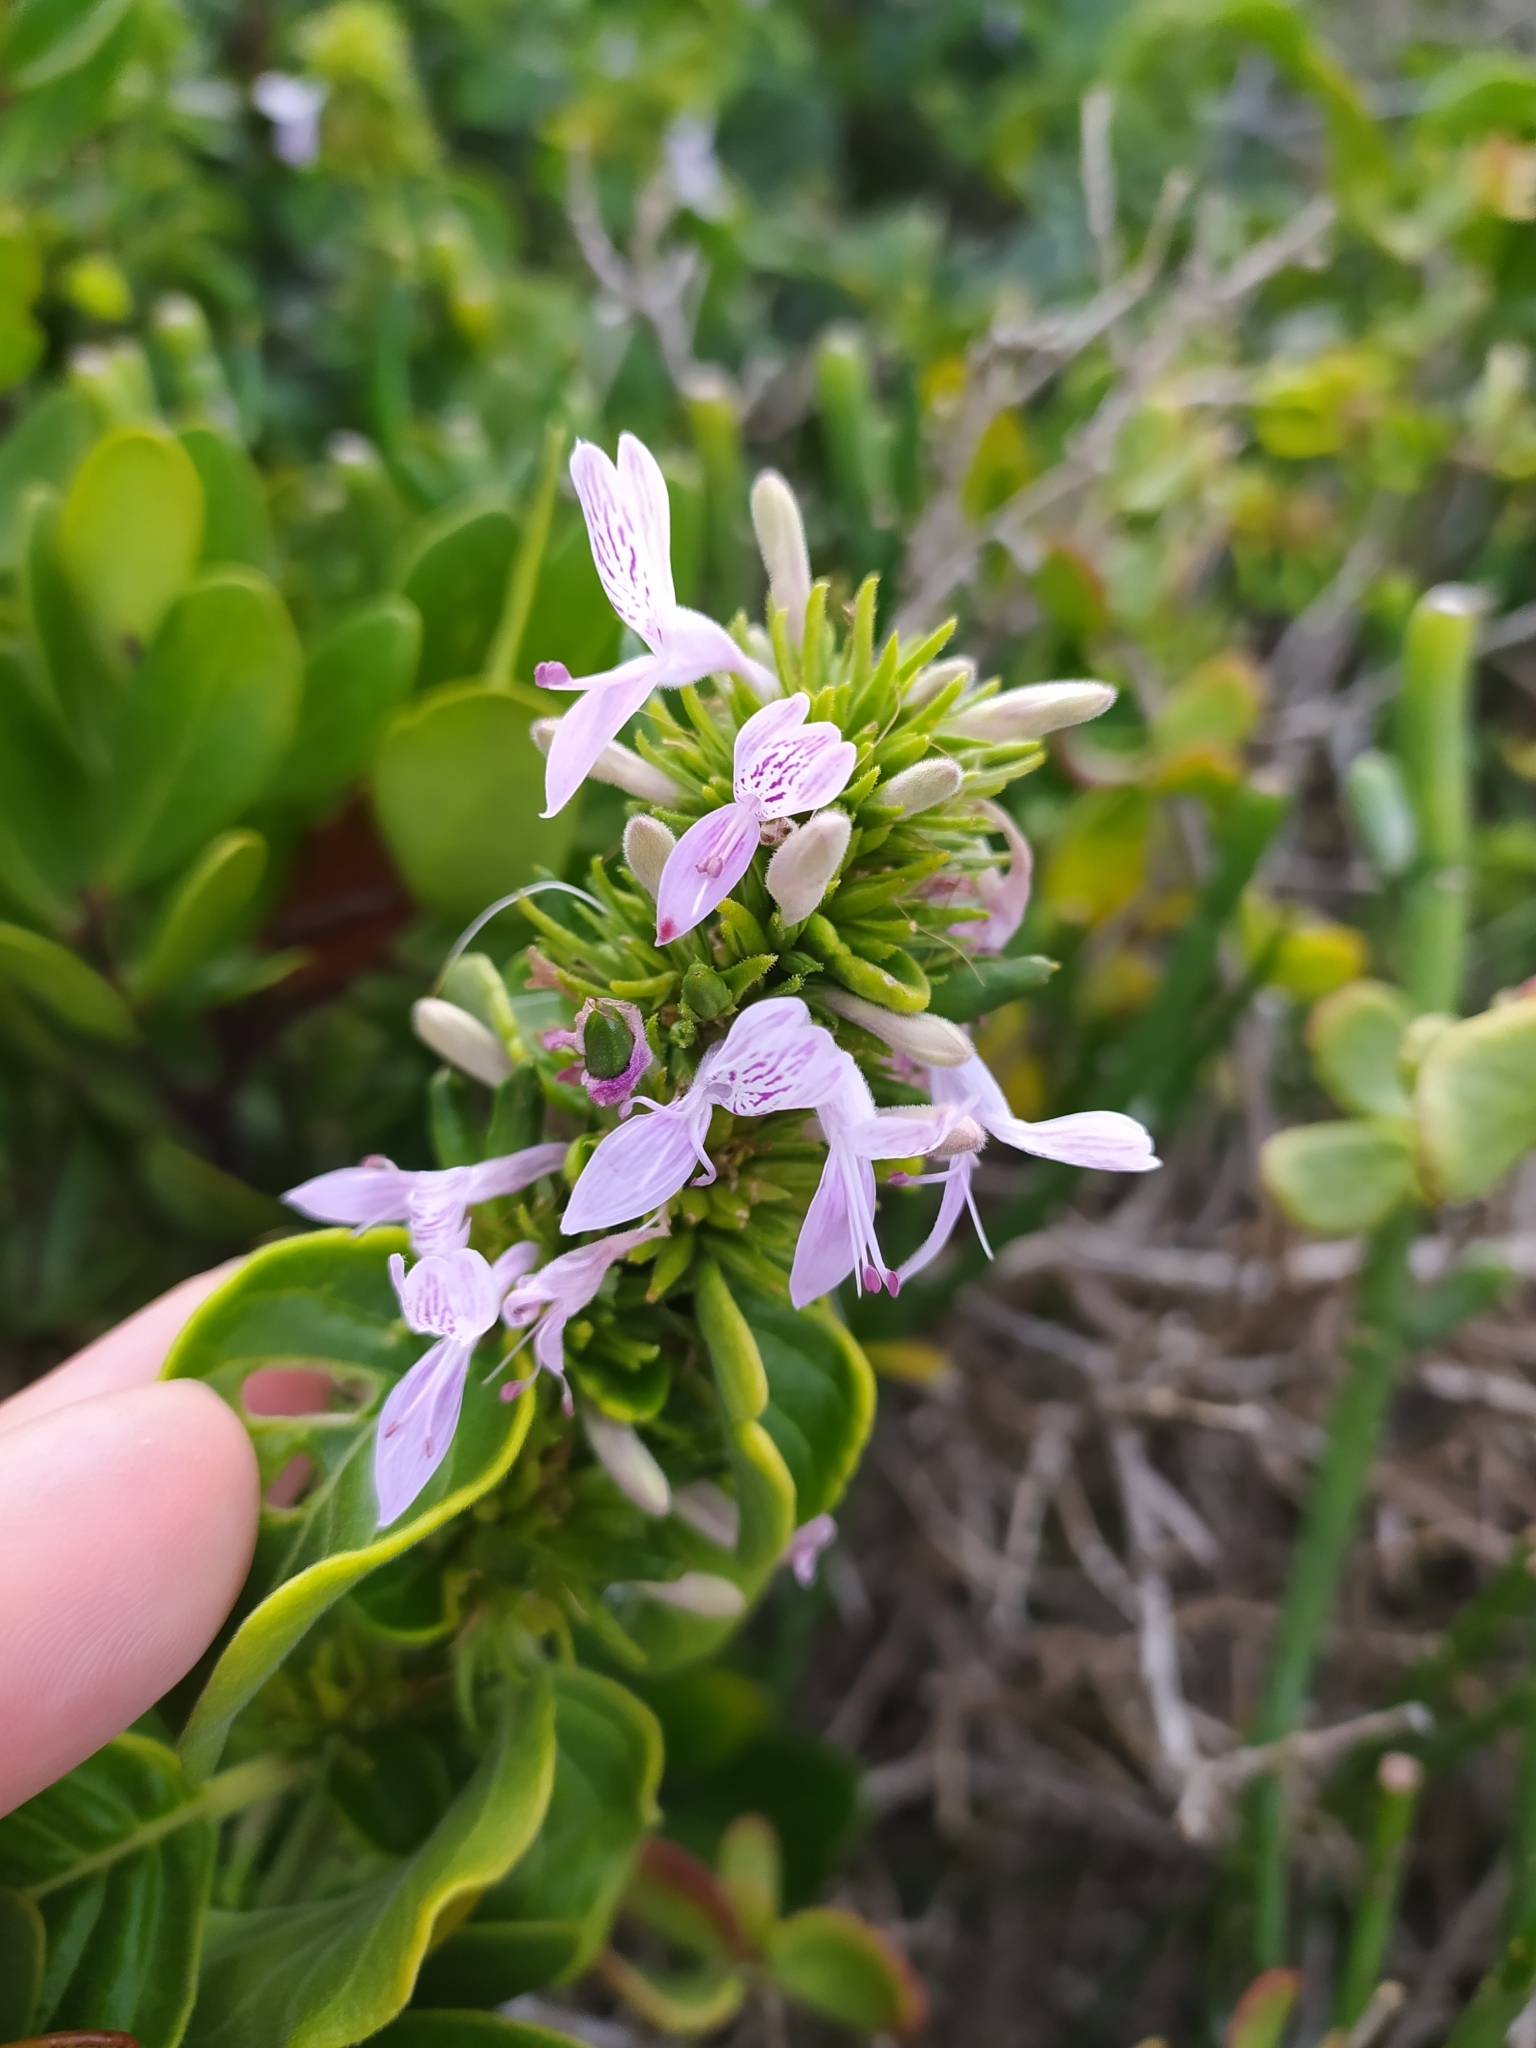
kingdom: Plantae
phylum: Tracheophyta
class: Magnoliopsida
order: Lamiales
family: Acanthaceae
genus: Hypoestes
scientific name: Hypoestes aristata
